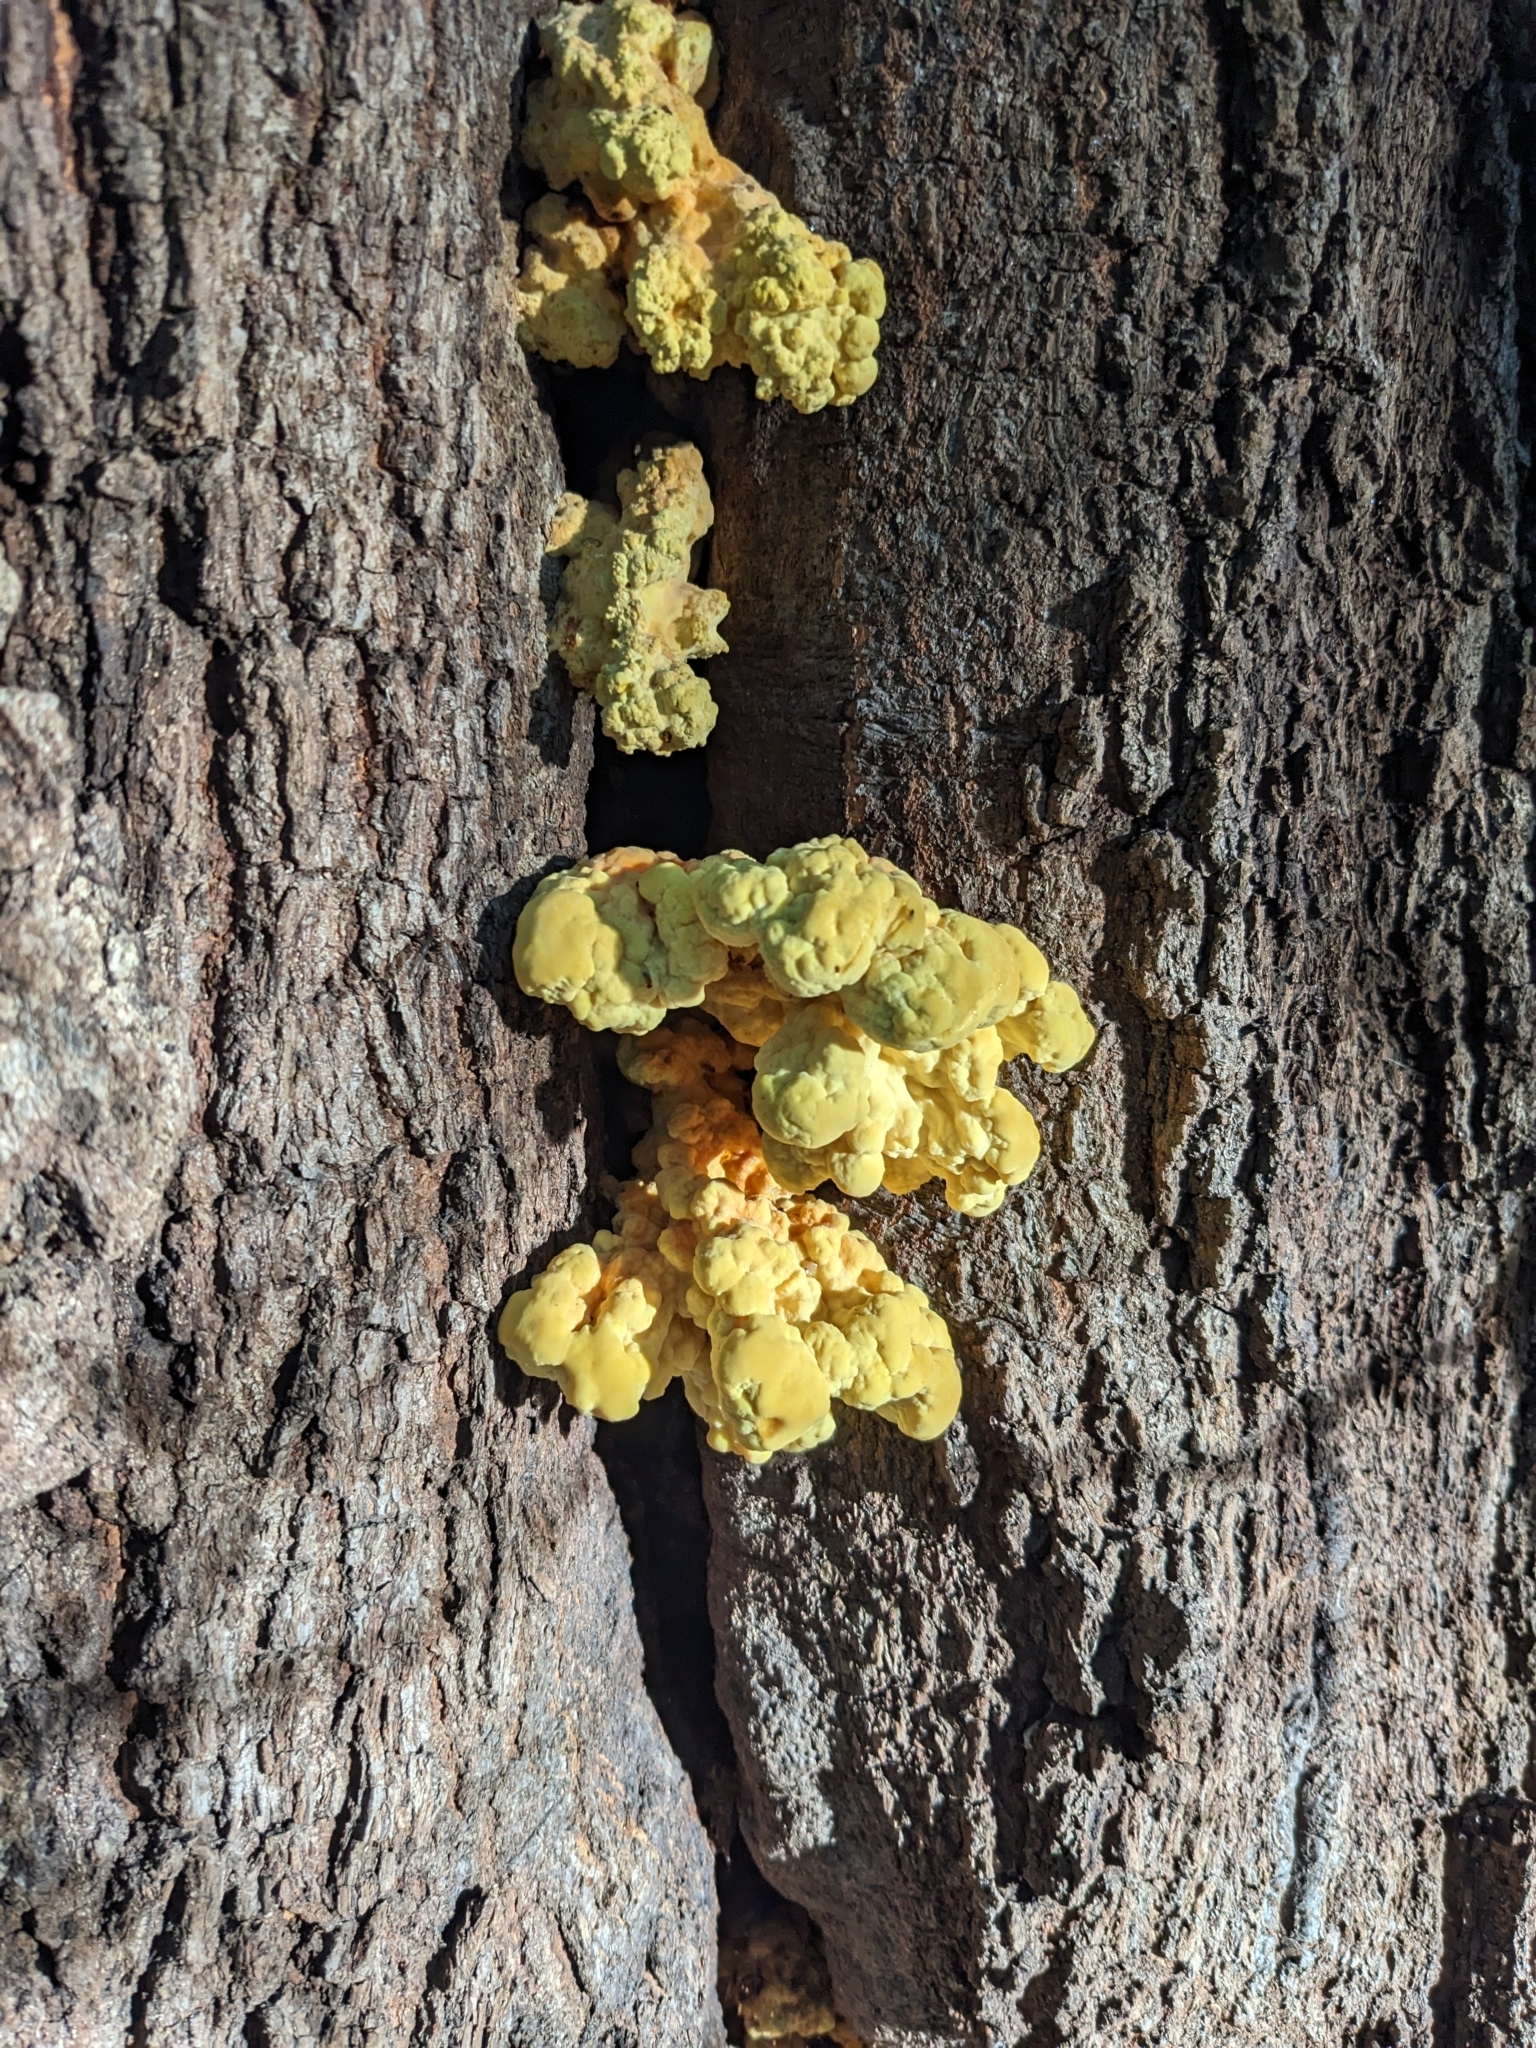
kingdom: Fungi
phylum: Basidiomycota
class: Agaricomycetes
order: Polyporales
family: Laetiporaceae
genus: Laetiporus
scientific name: Laetiporus sulphureus
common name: Chicken of the woods
